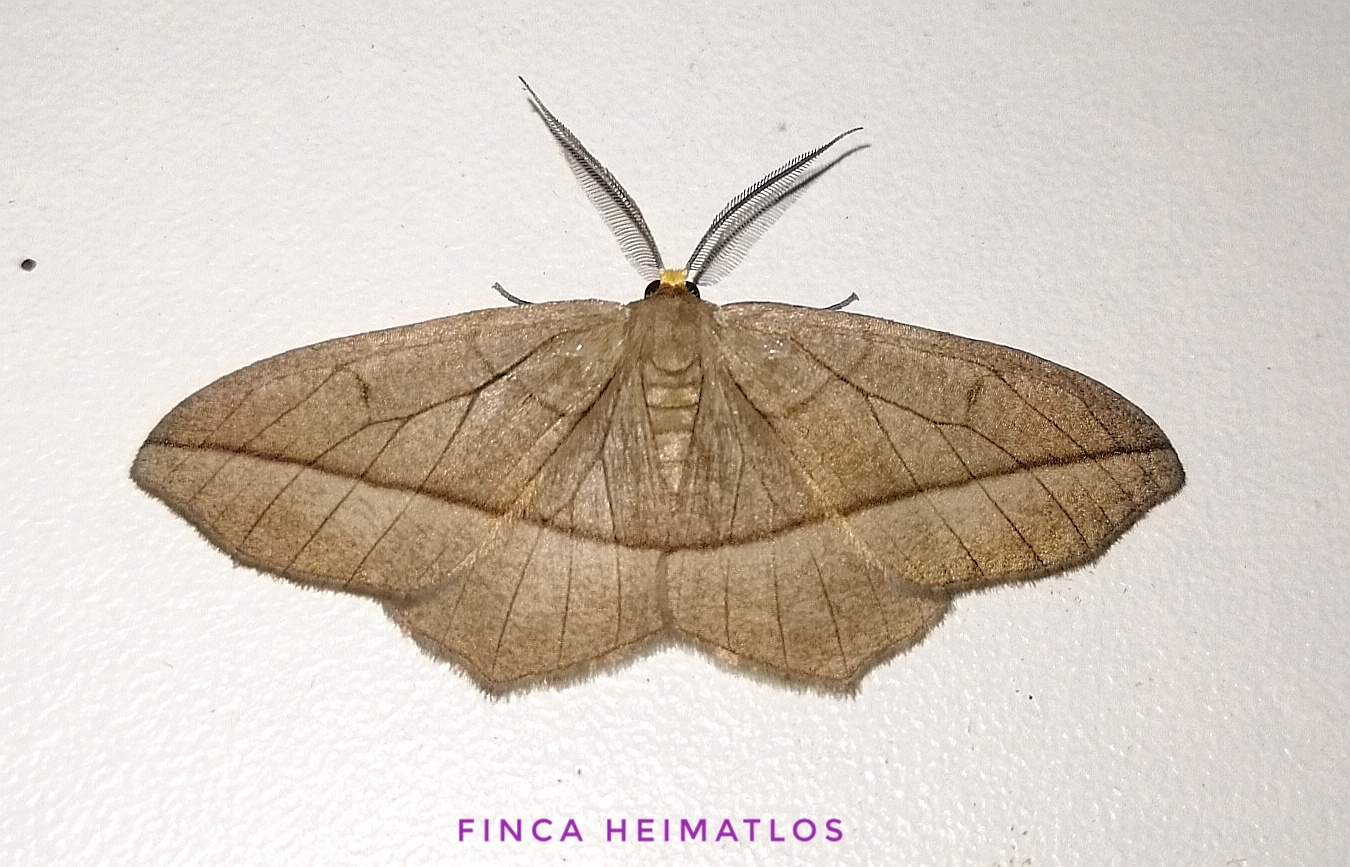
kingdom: Animalia
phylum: Arthropoda
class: Insecta
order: Lepidoptera
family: Geometridae
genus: Nephodia
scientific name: Nephodia secturata
